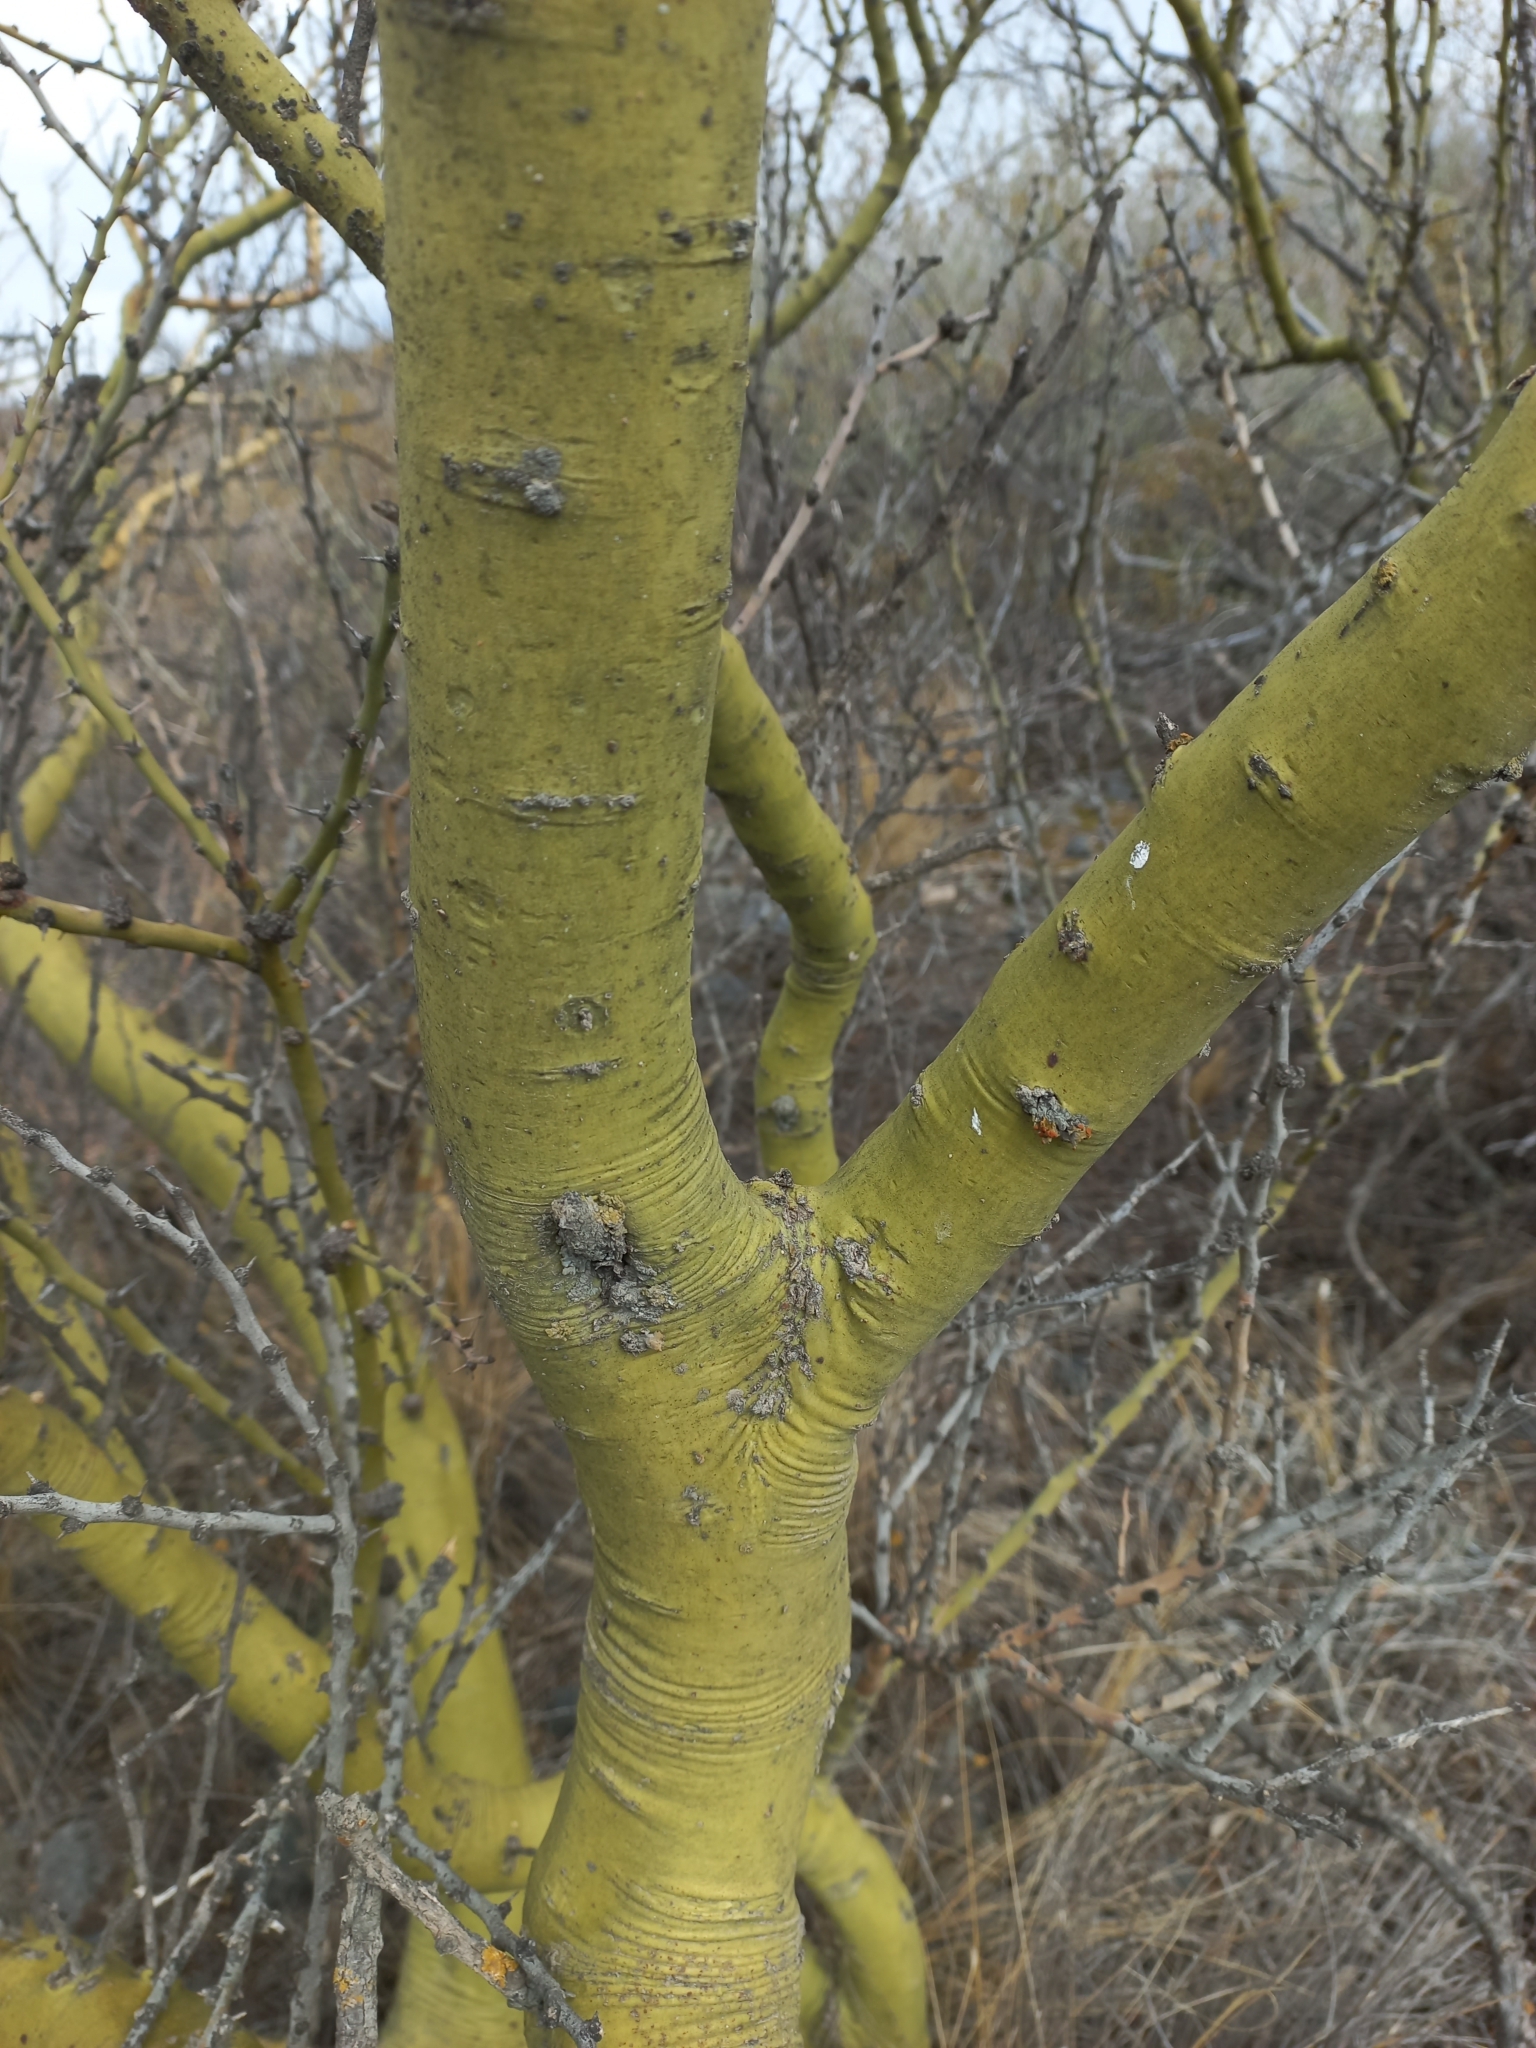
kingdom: Plantae
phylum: Tracheophyta
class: Magnoliopsida
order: Fabales
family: Fabaceae
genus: Parkinsonia
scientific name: Parkinsonia praecox
